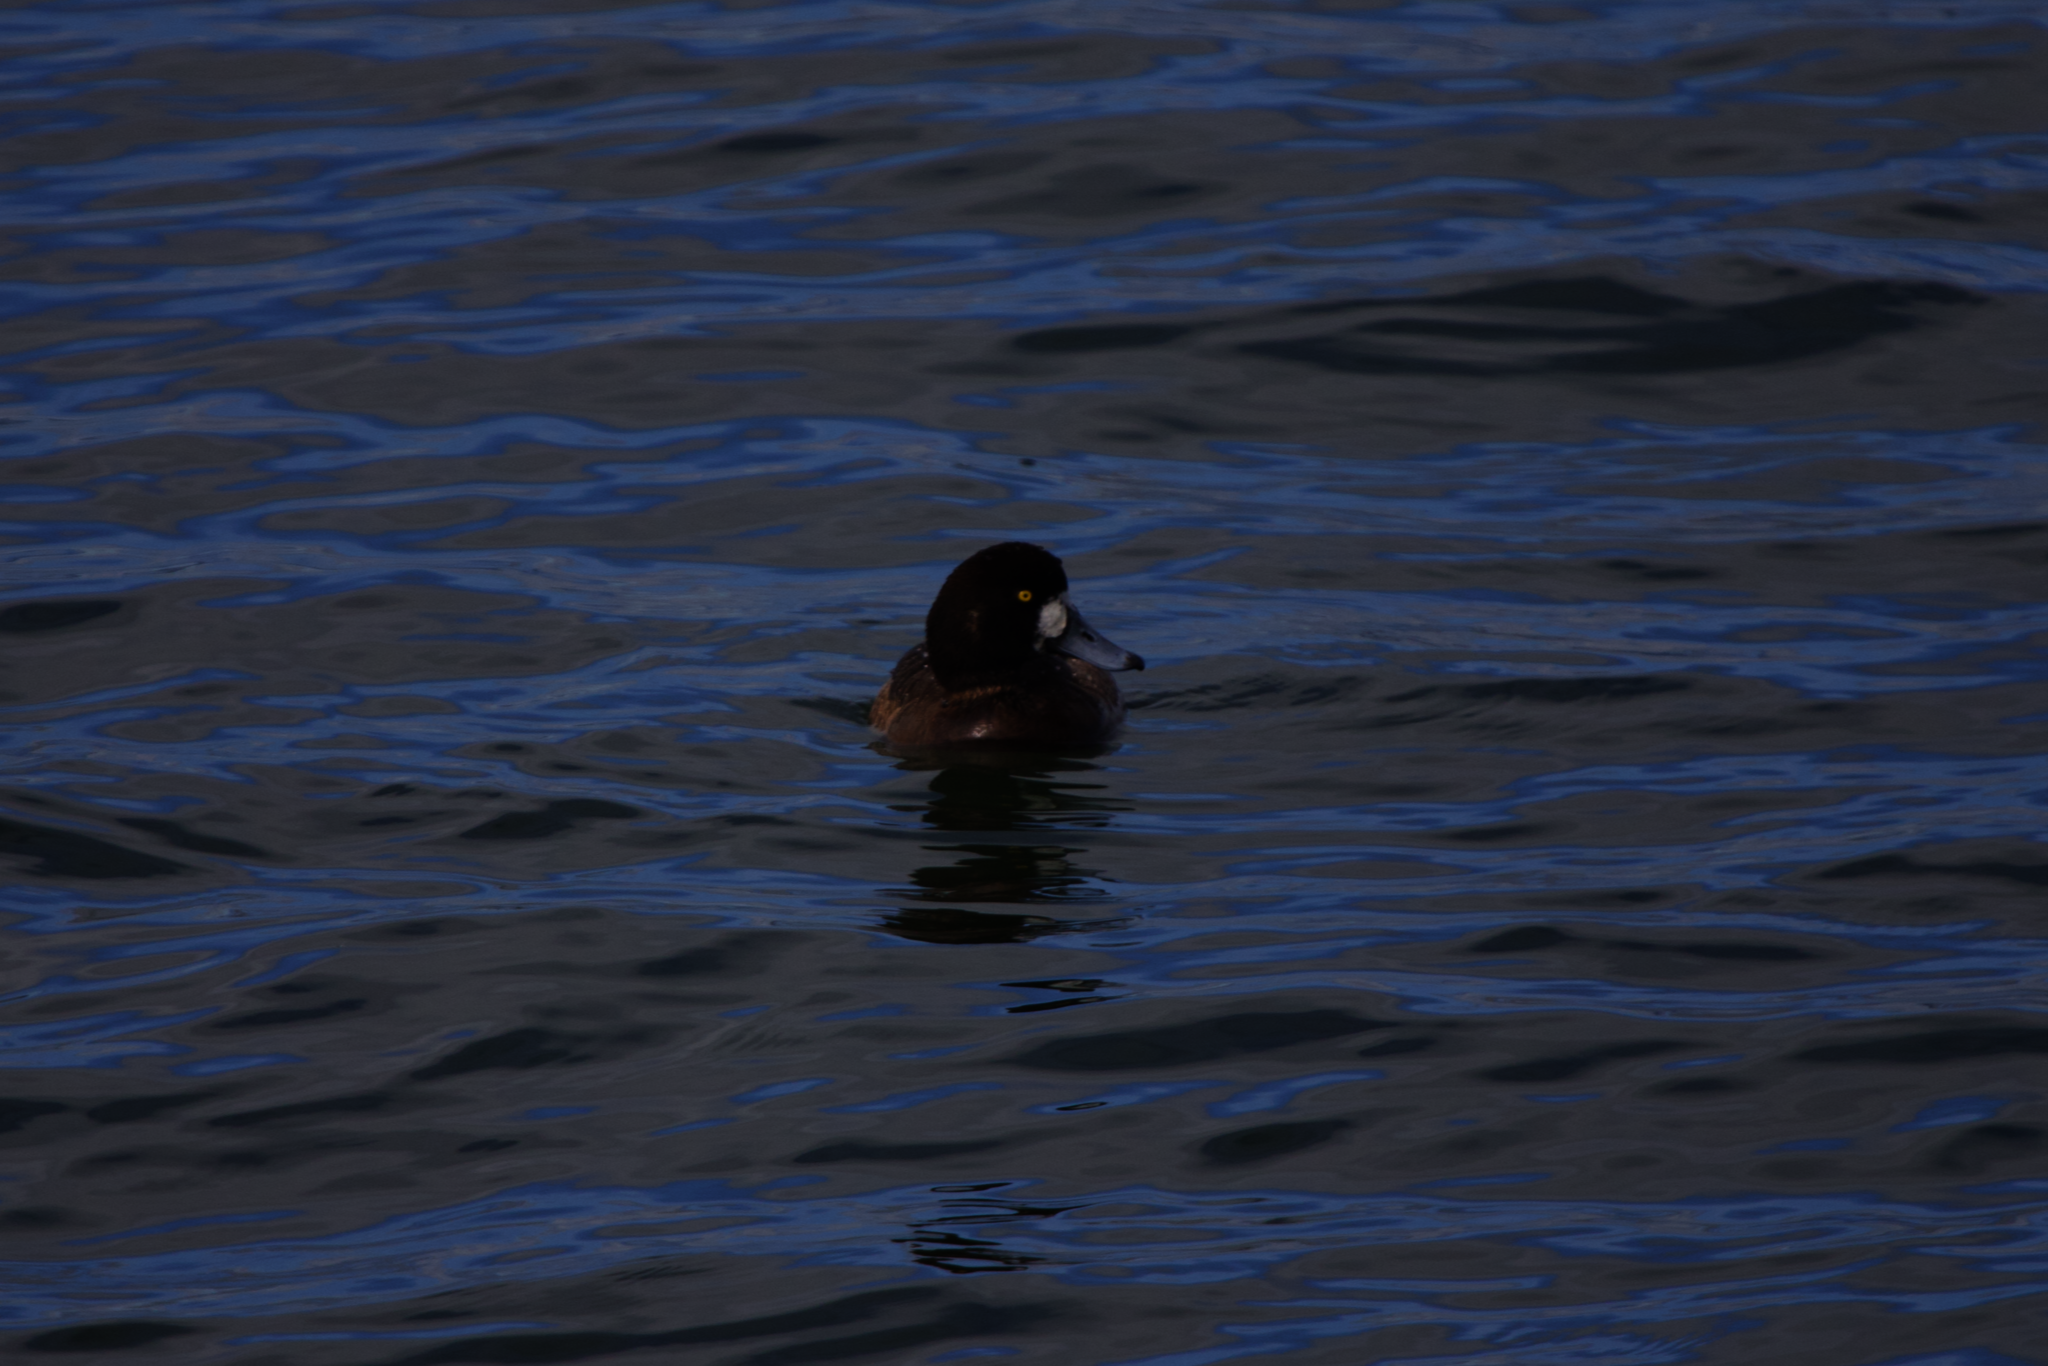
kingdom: Animalia
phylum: Chordata
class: Aves
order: Anseriformes
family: Anatidae
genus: Aythya
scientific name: Aythya marila
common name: Greater scaup
